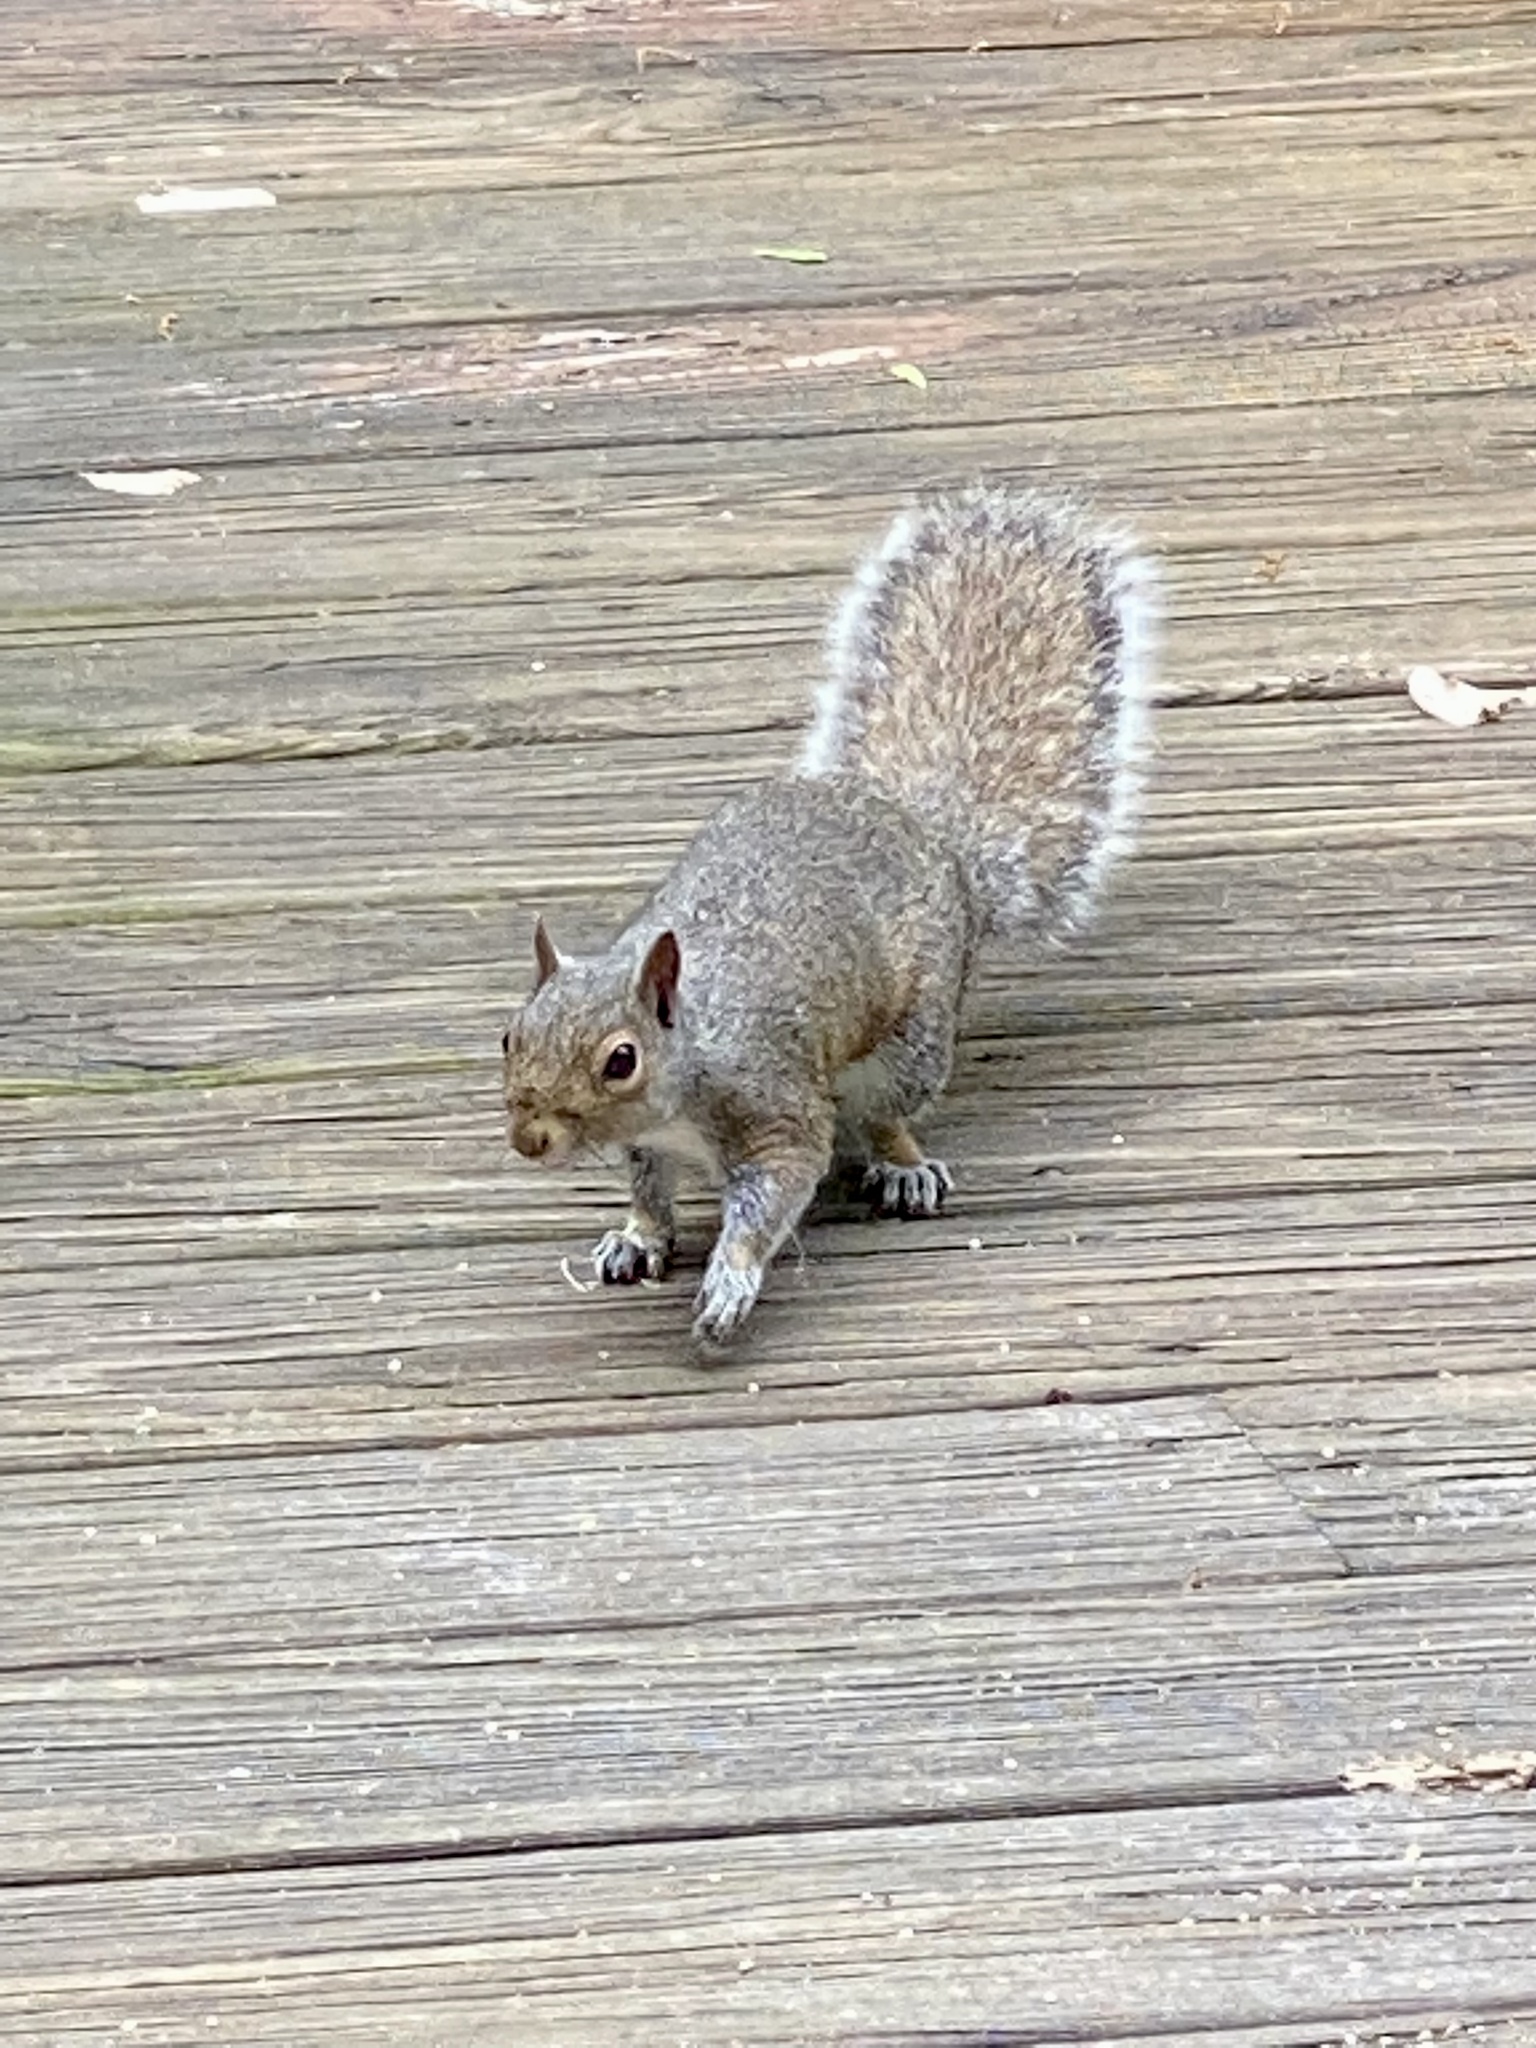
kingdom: Animalia
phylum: Chordata
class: Mammalia
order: Rodentia
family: Sciuridae
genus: Sciurus
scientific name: Sciurus carolinensis
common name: Eastern gray squirrel
